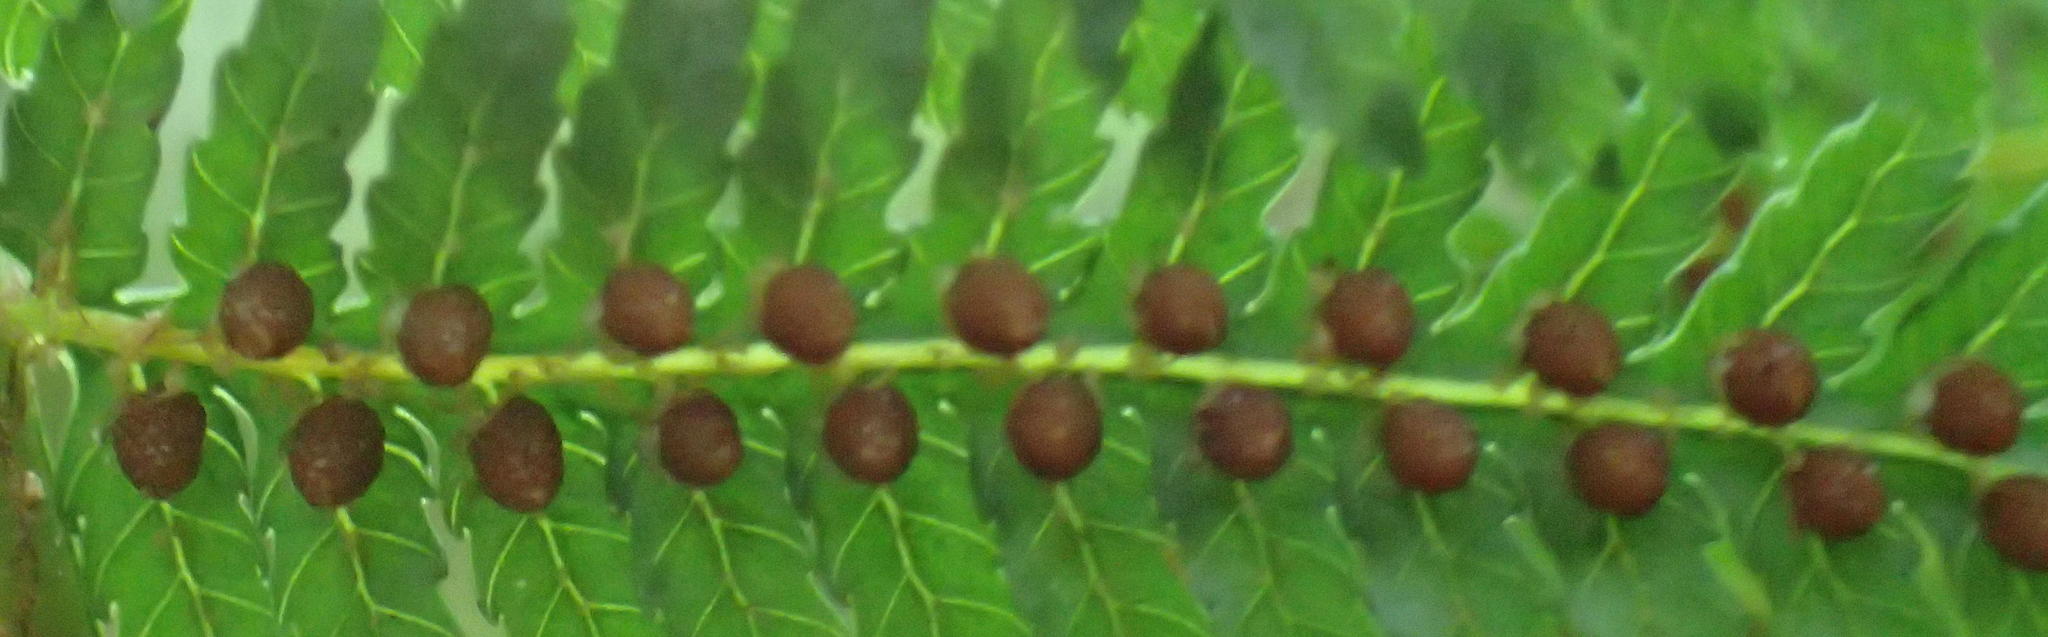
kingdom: Plantae
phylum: Tracheophyta
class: Polypodiopsida
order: Cyatheales
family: Cyatheaceae
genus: Gymnosphaera
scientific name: Gymnosphaera capensis
